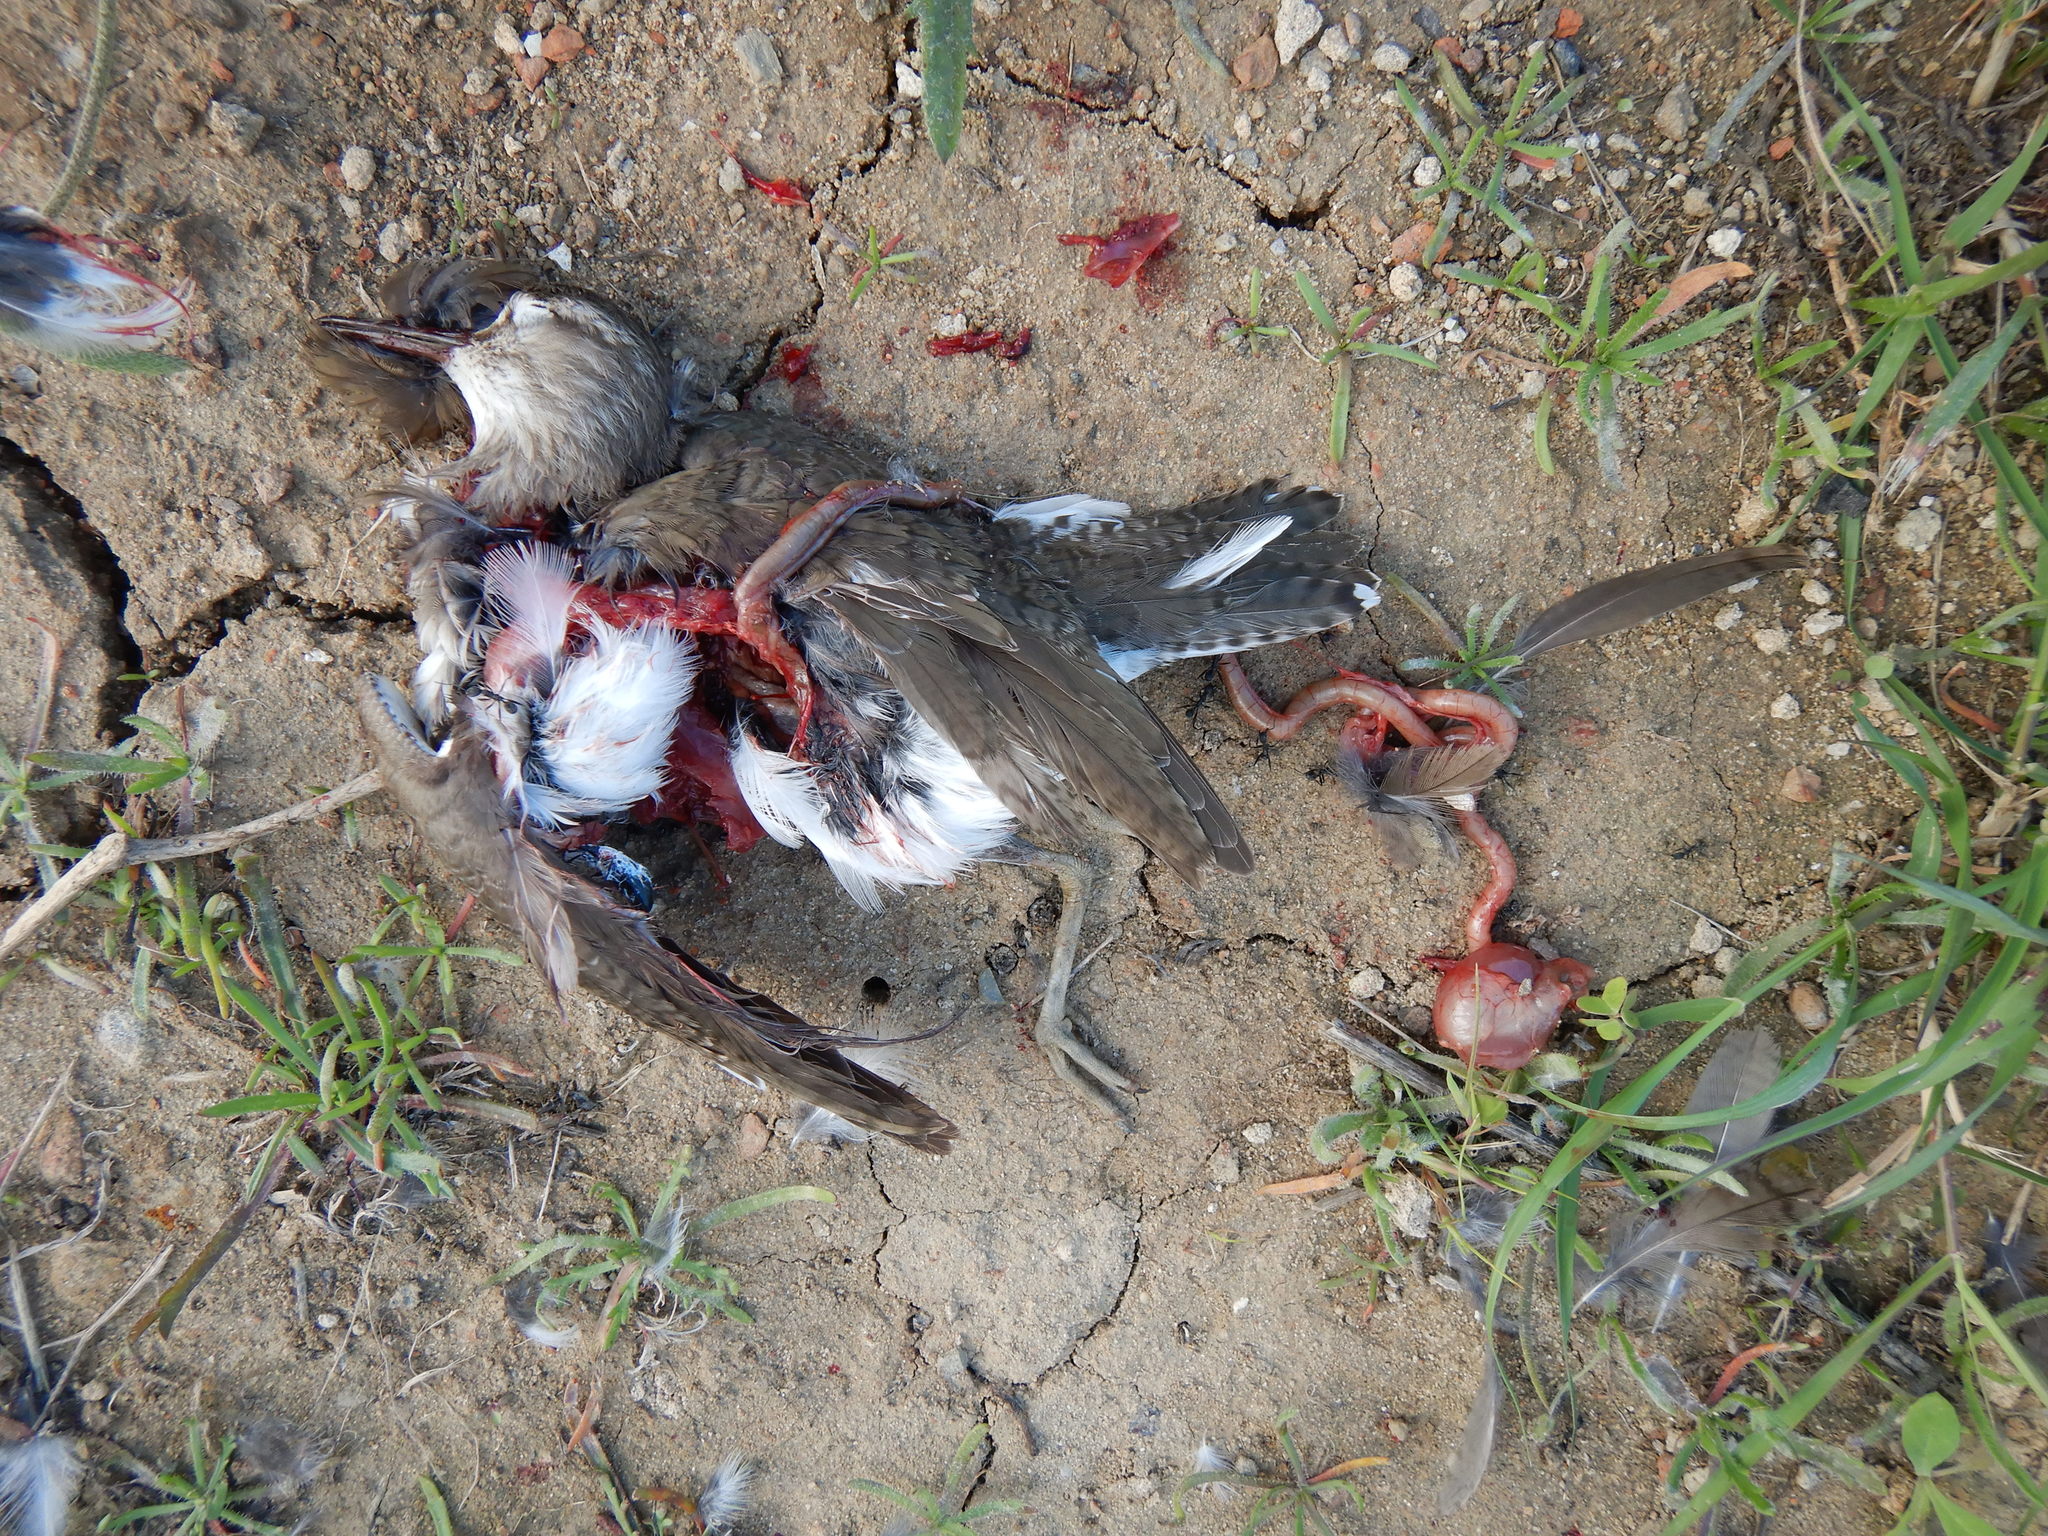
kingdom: Animalia
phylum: Chordata
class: Aves
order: Charadriiformes
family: Scolopacidae
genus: Actitis
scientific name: Actitis hypoleucos
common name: Common sandpiper
